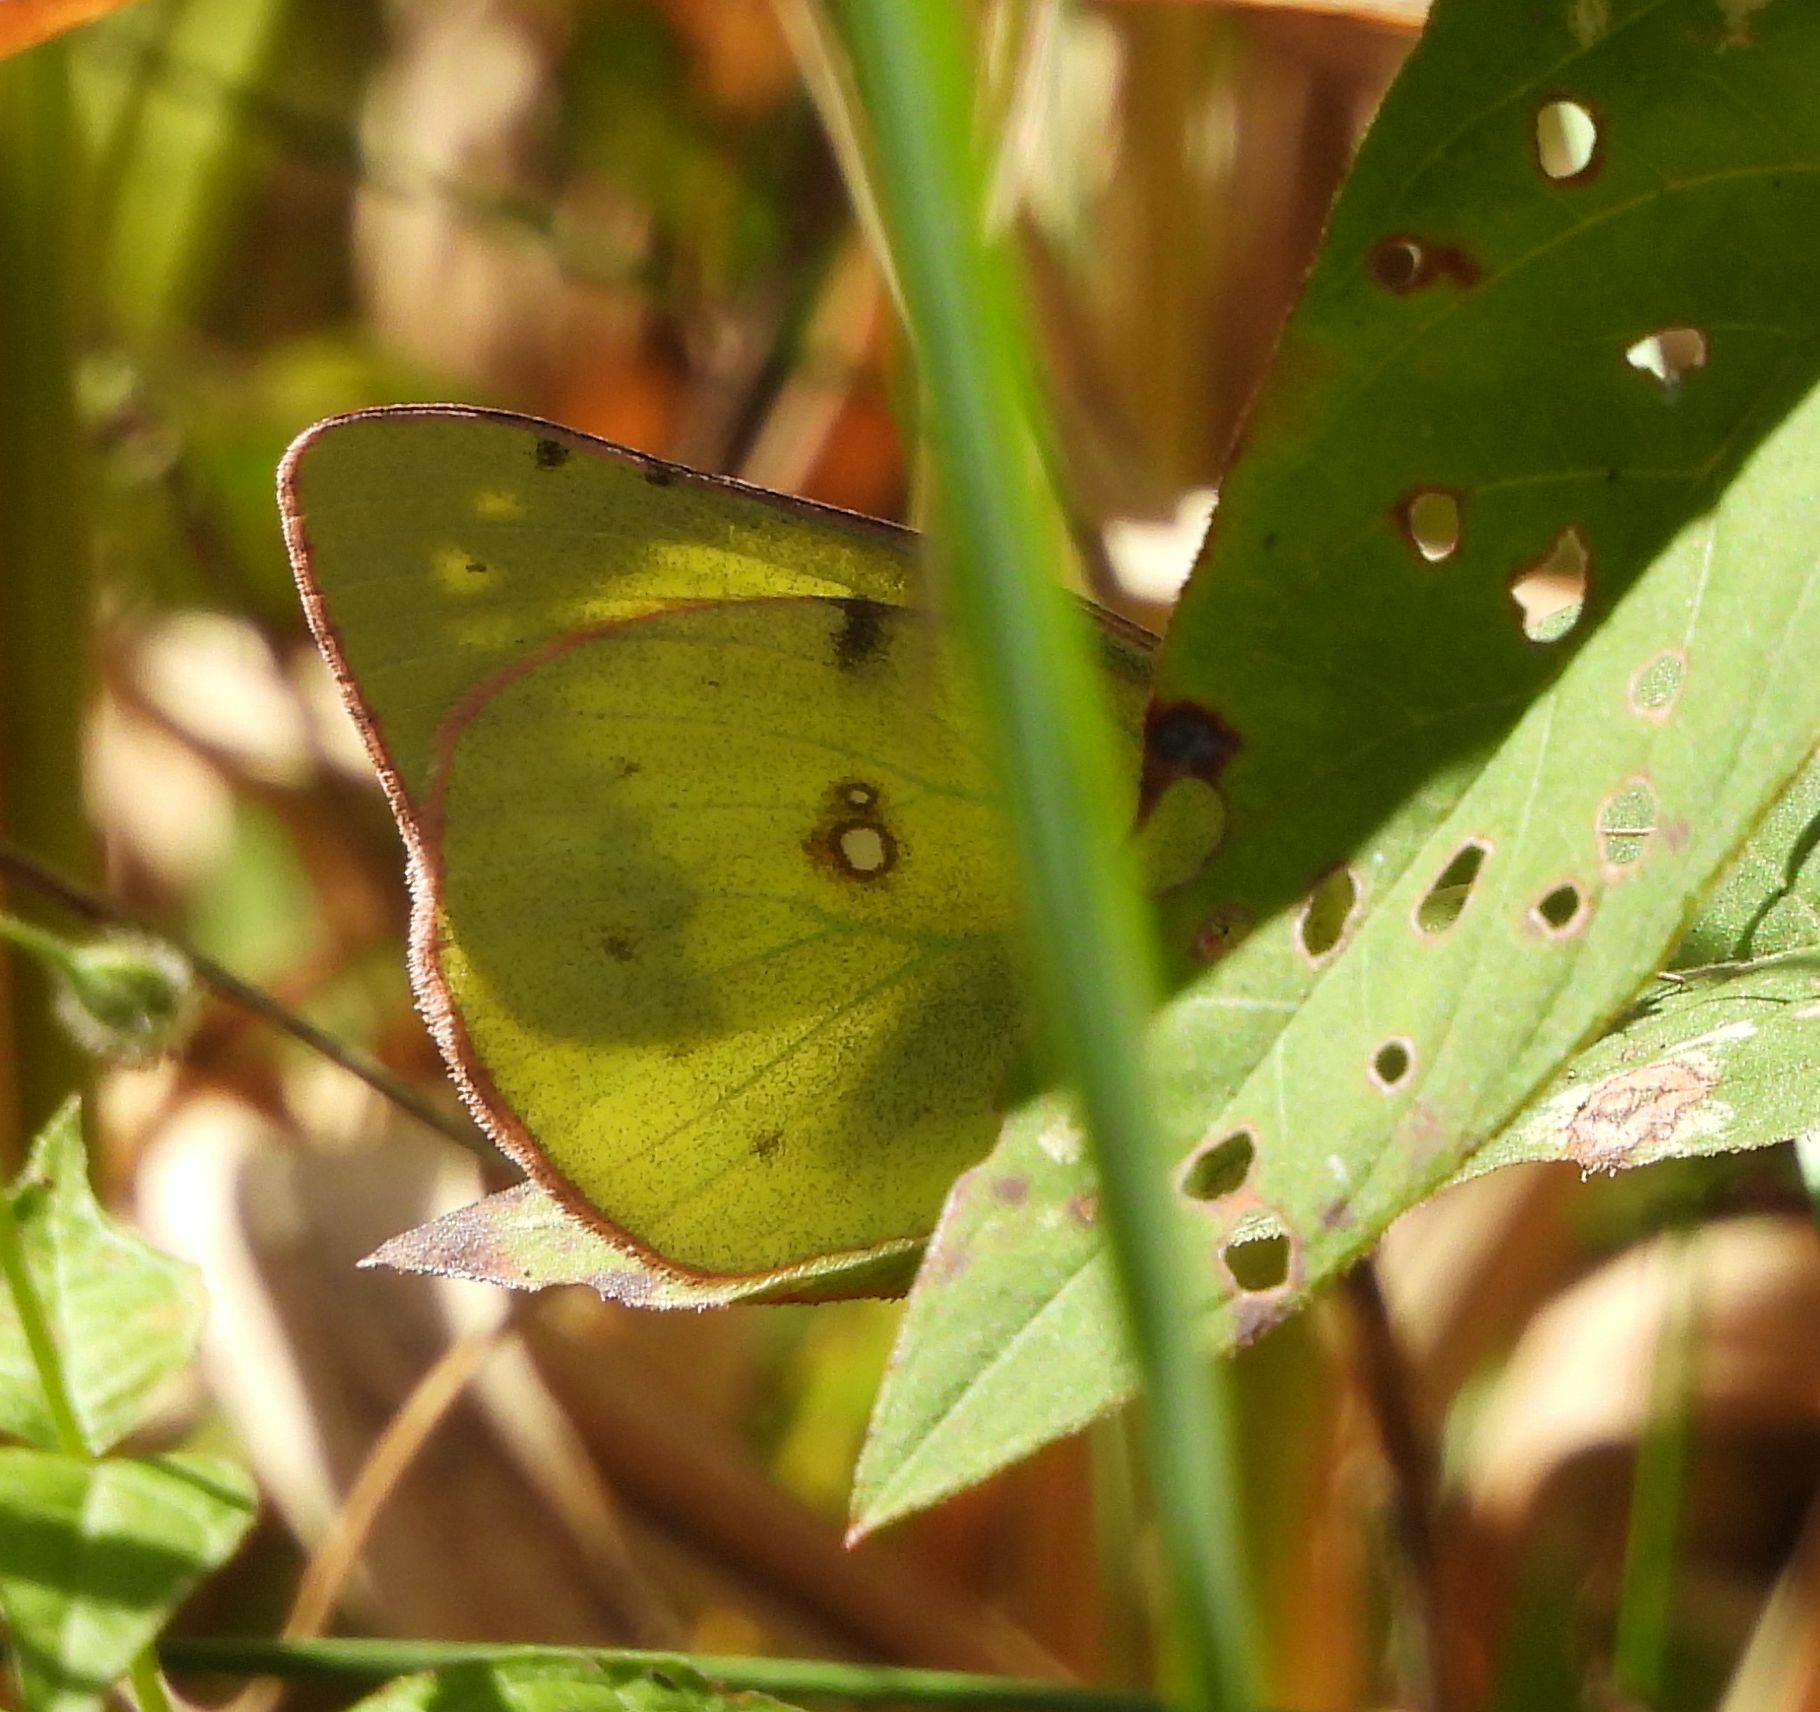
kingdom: Animalia
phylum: Arthropoda
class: Insecta
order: Lepidoptera
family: Pieridae
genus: Colias
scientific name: Colias philodice
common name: Clouded sulphur
